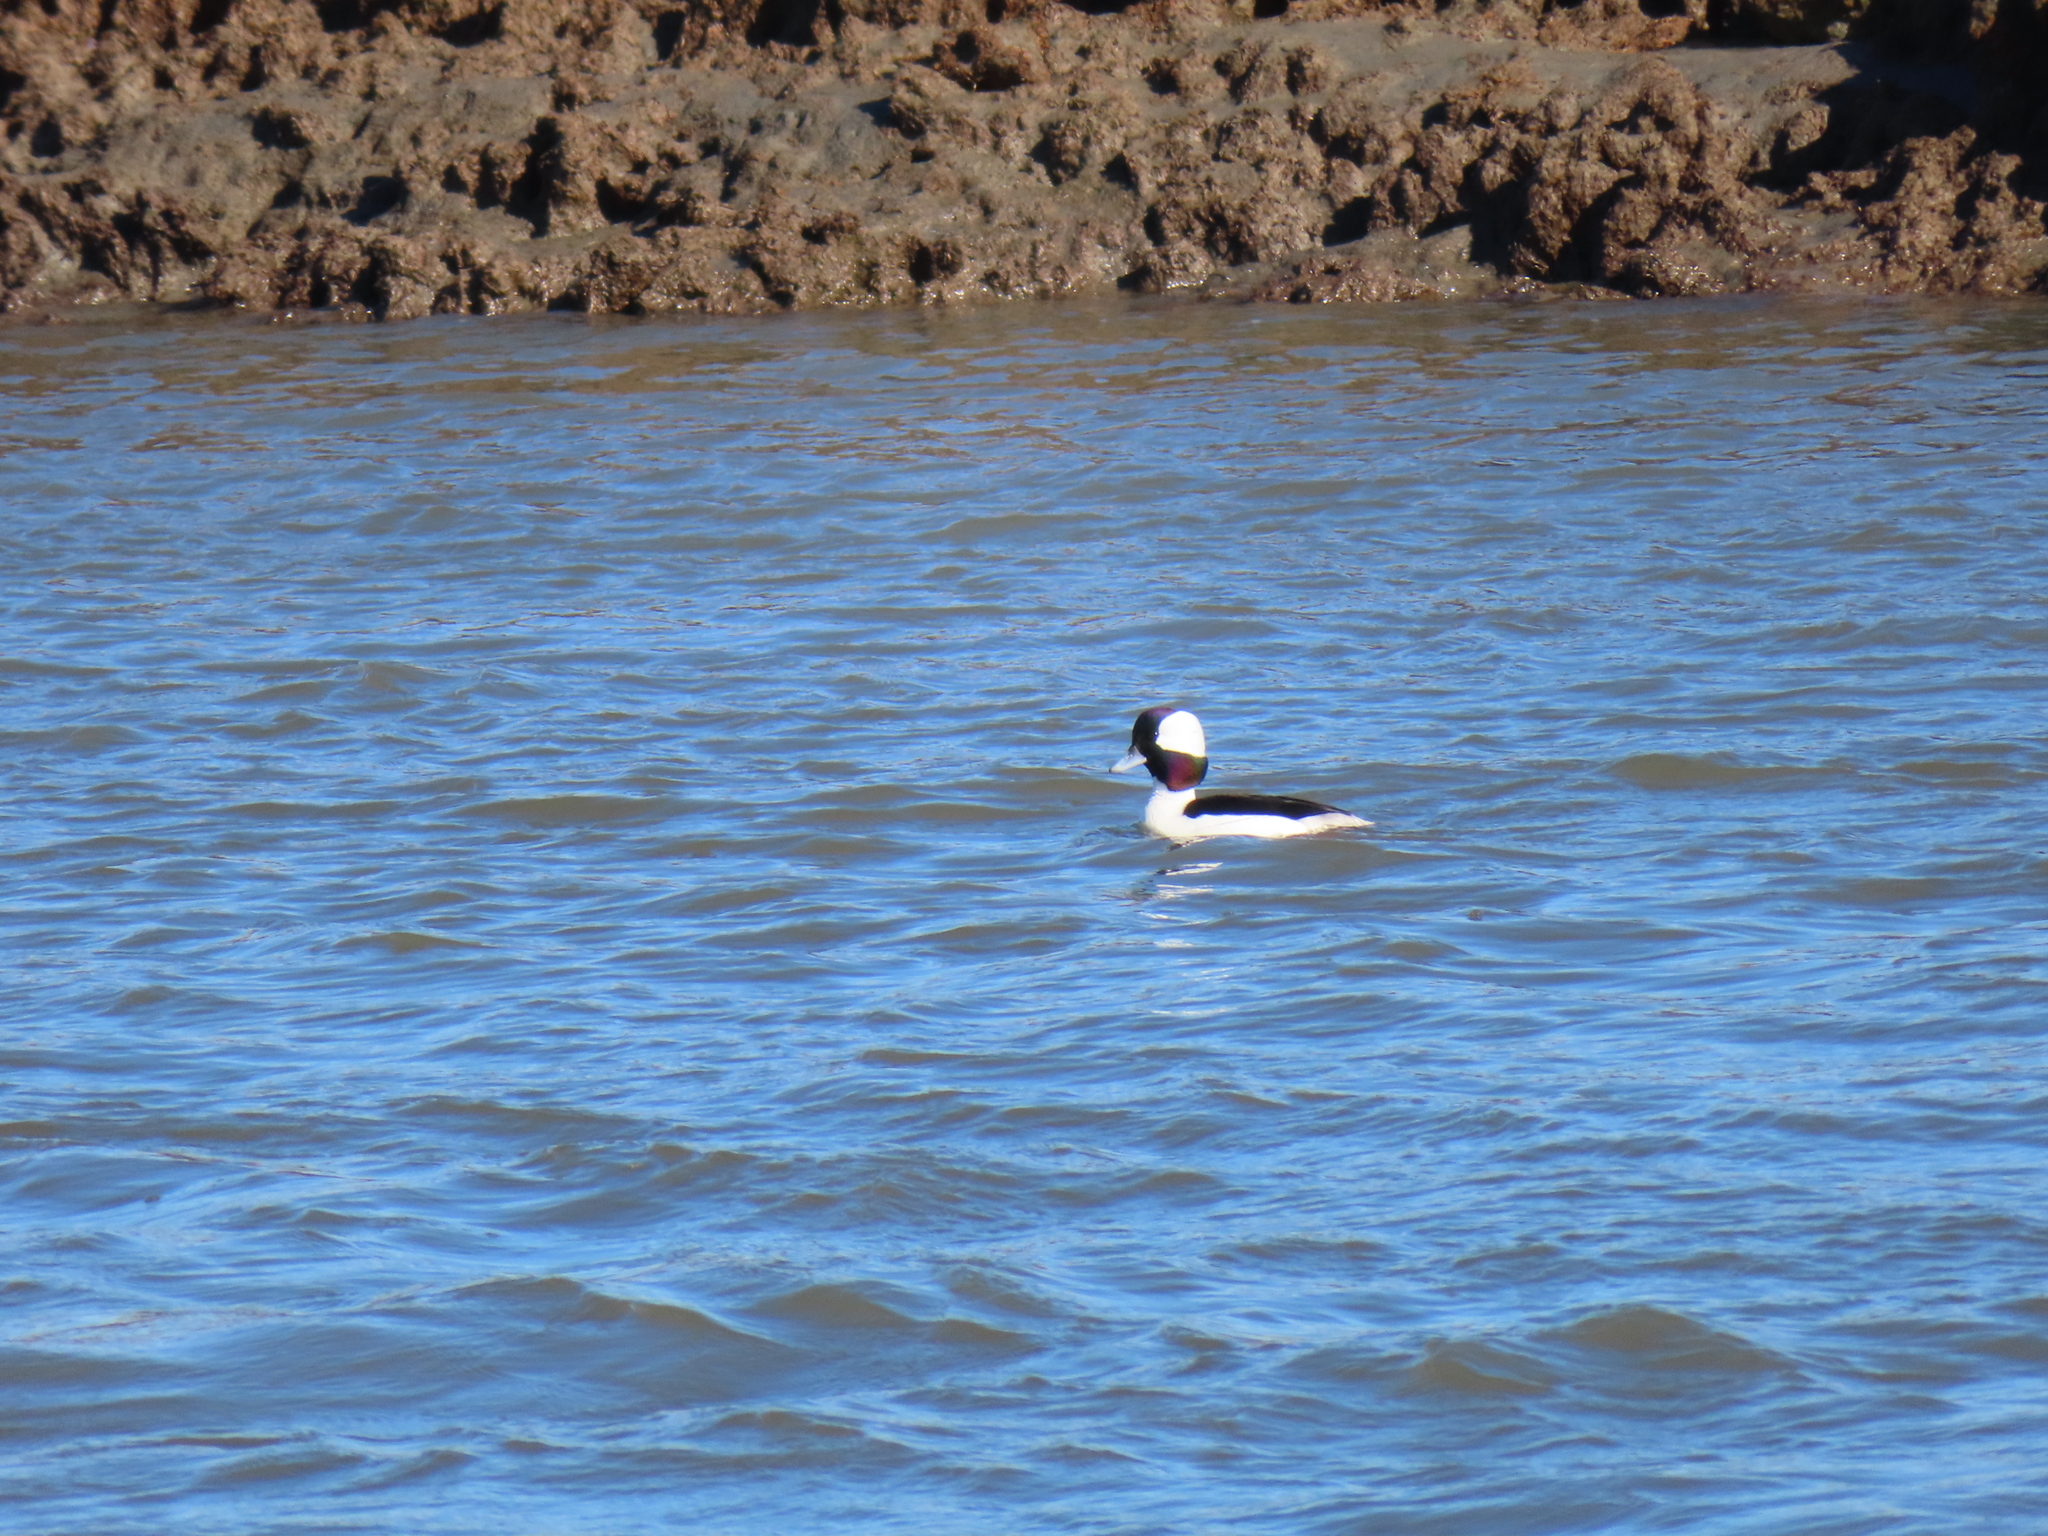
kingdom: Animalia
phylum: Chordata
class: Aves
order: Anseriformes
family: Anatidae
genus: Bucephala
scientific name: Bucephala albeola
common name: Bufflehead
